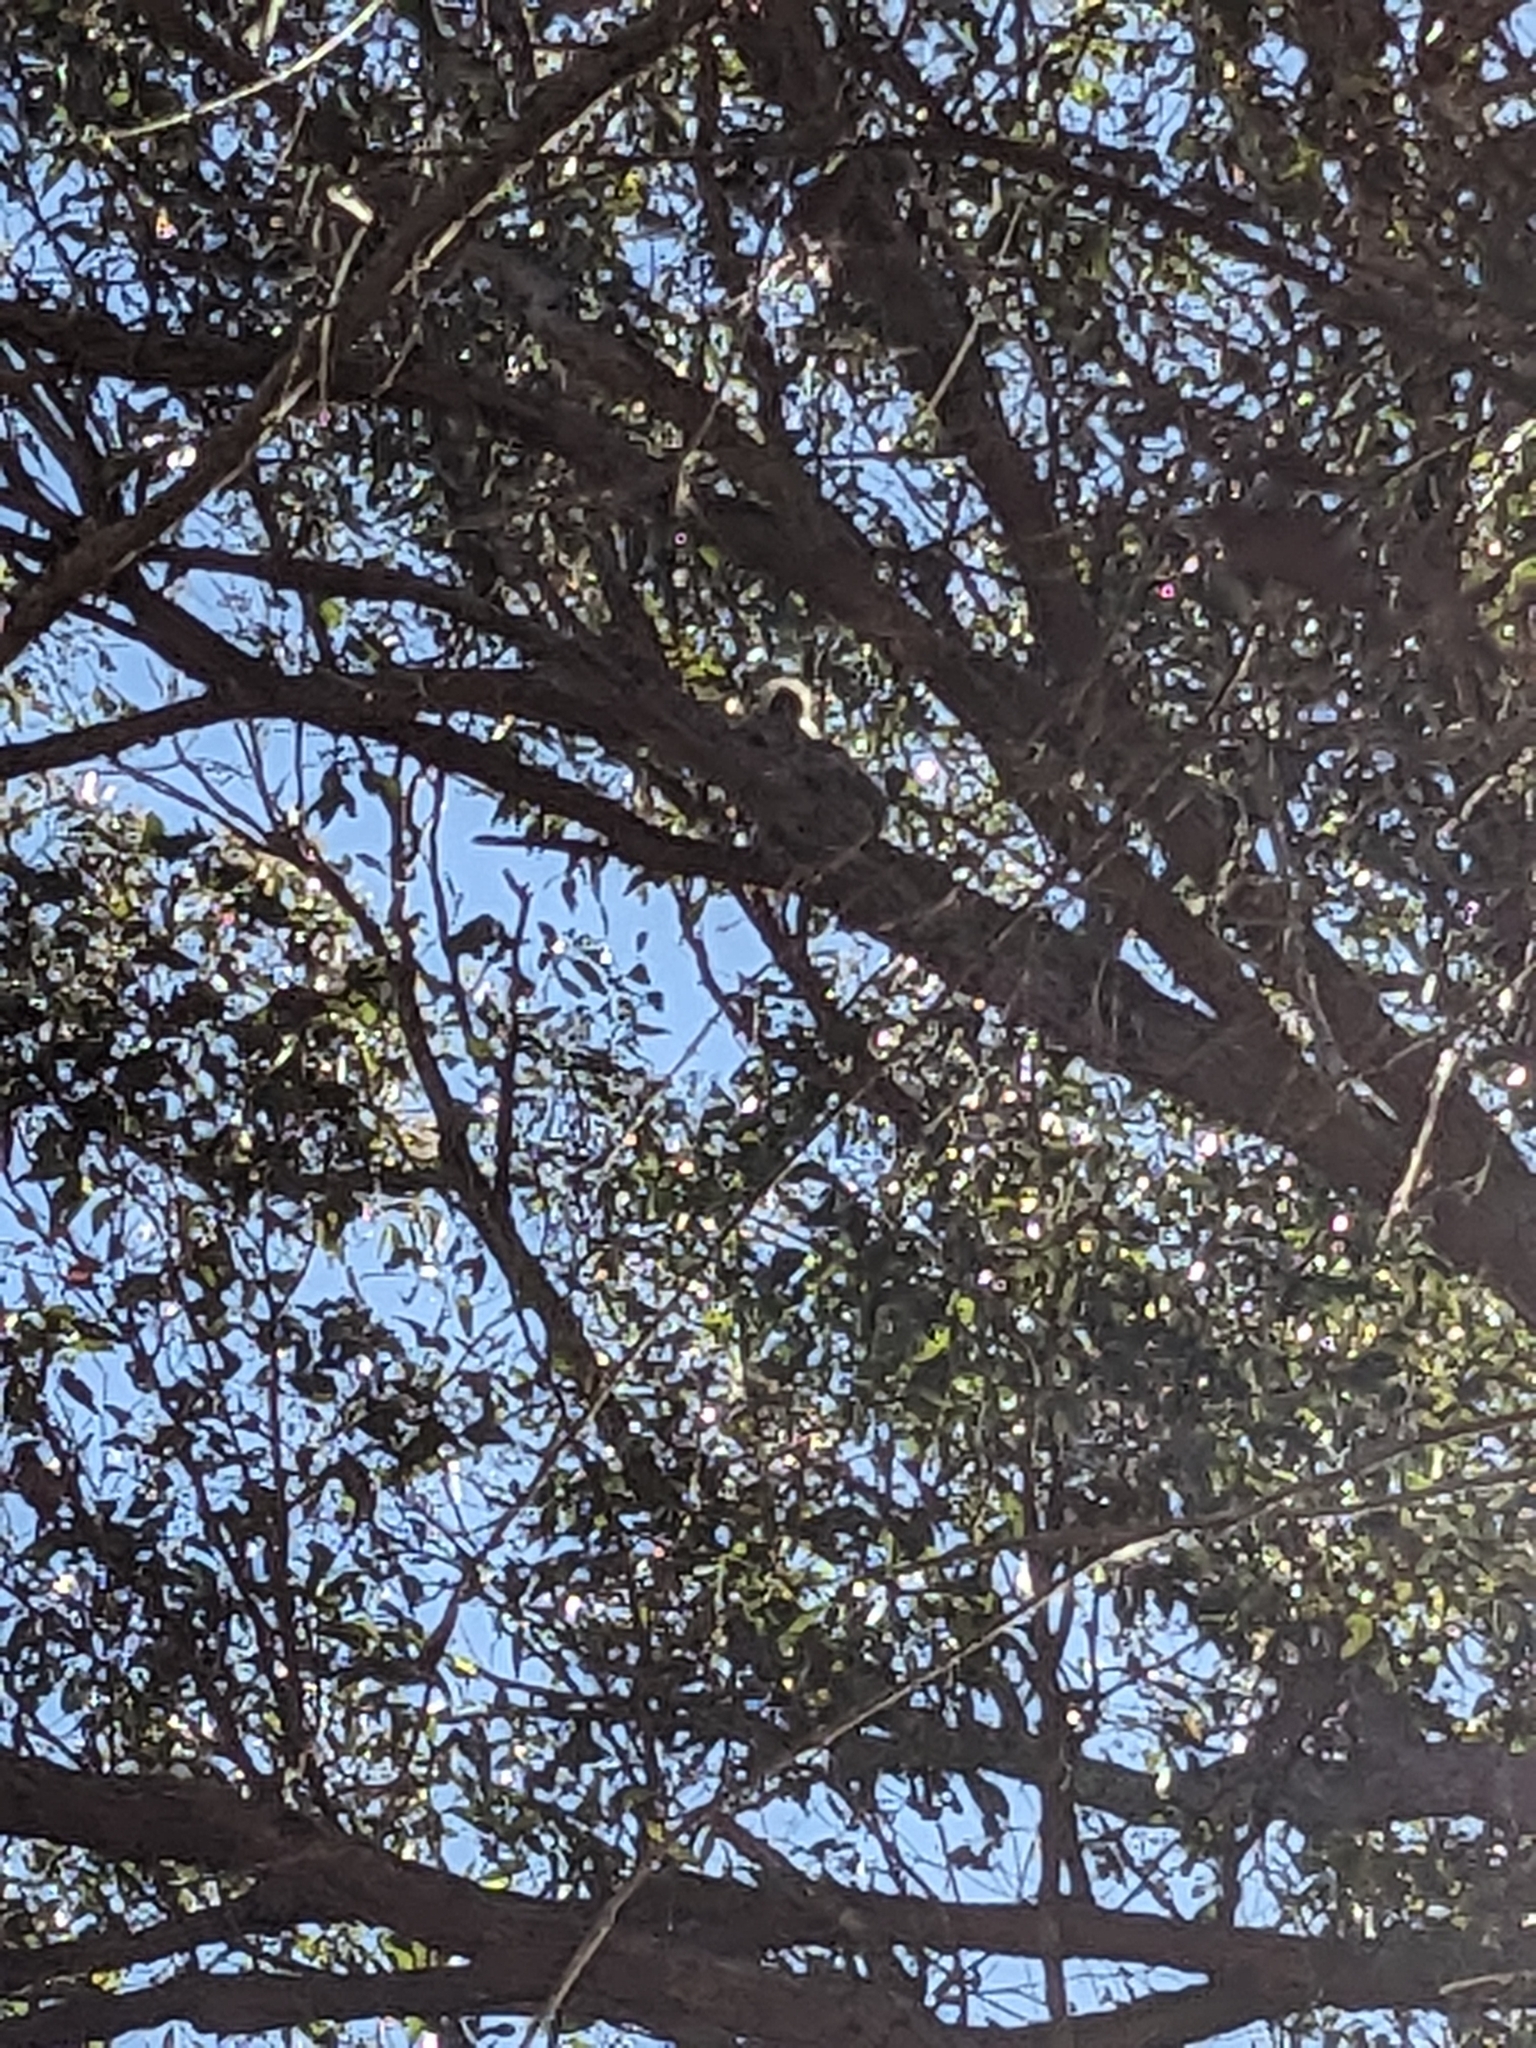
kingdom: Animalia
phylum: Chordata
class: Mammalia
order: Diprotodontia
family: Phascolarctidae
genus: Phascolarctos
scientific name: Phascolarctos cinereus
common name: Koala
